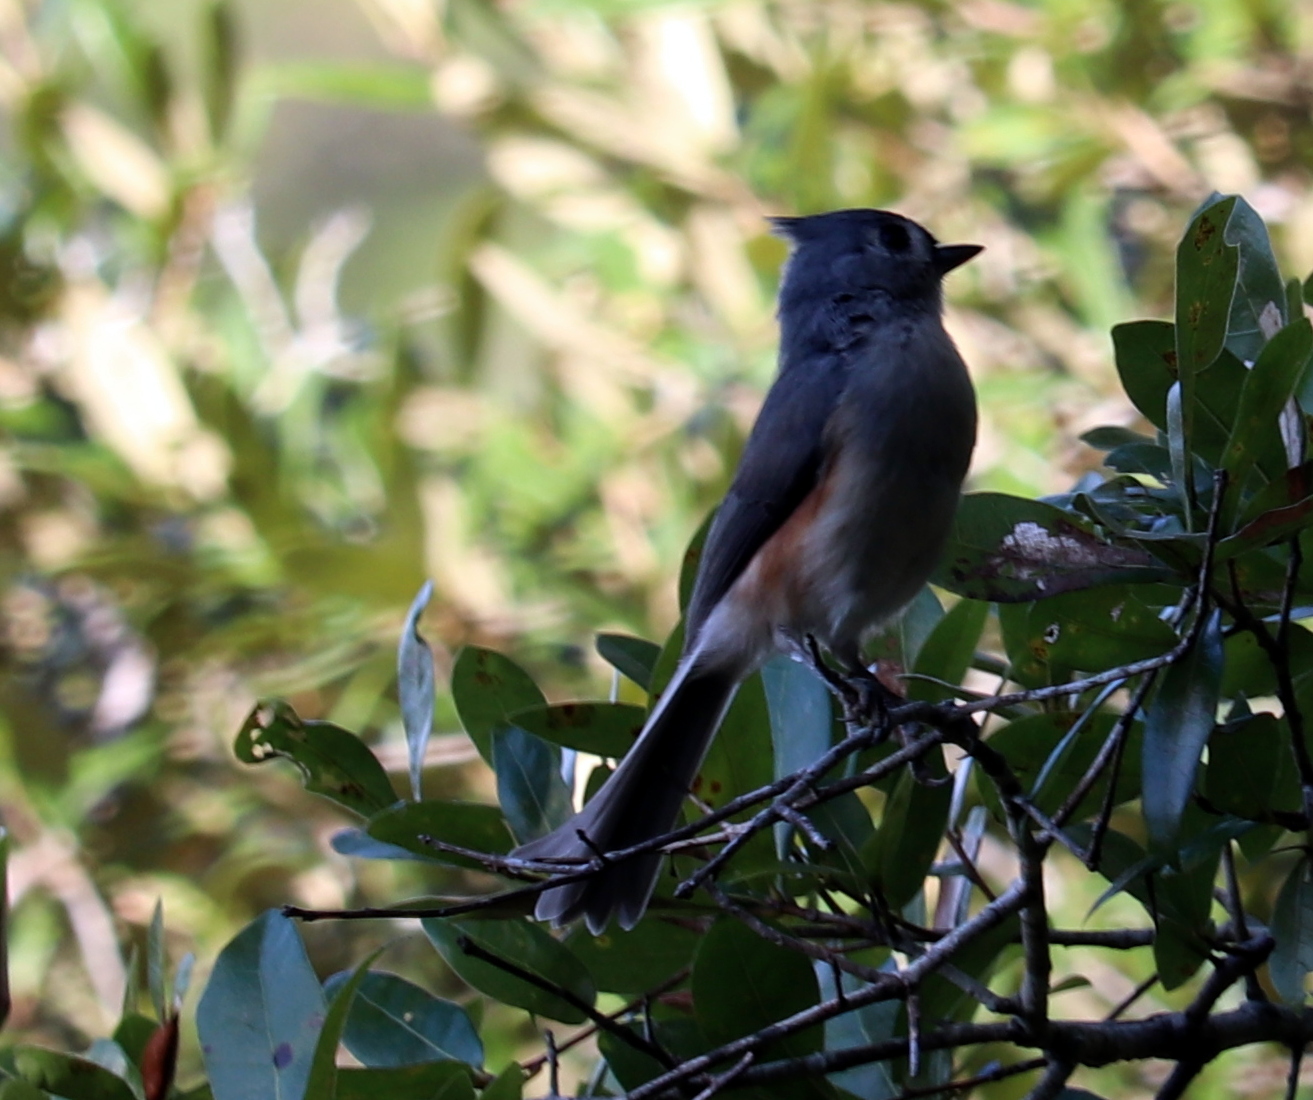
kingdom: Animalia
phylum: Chordata
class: Aves
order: Passeriformes
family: Paridae
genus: Baeolophus
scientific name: Baeolophus bicolor
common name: Tufted titmouse
